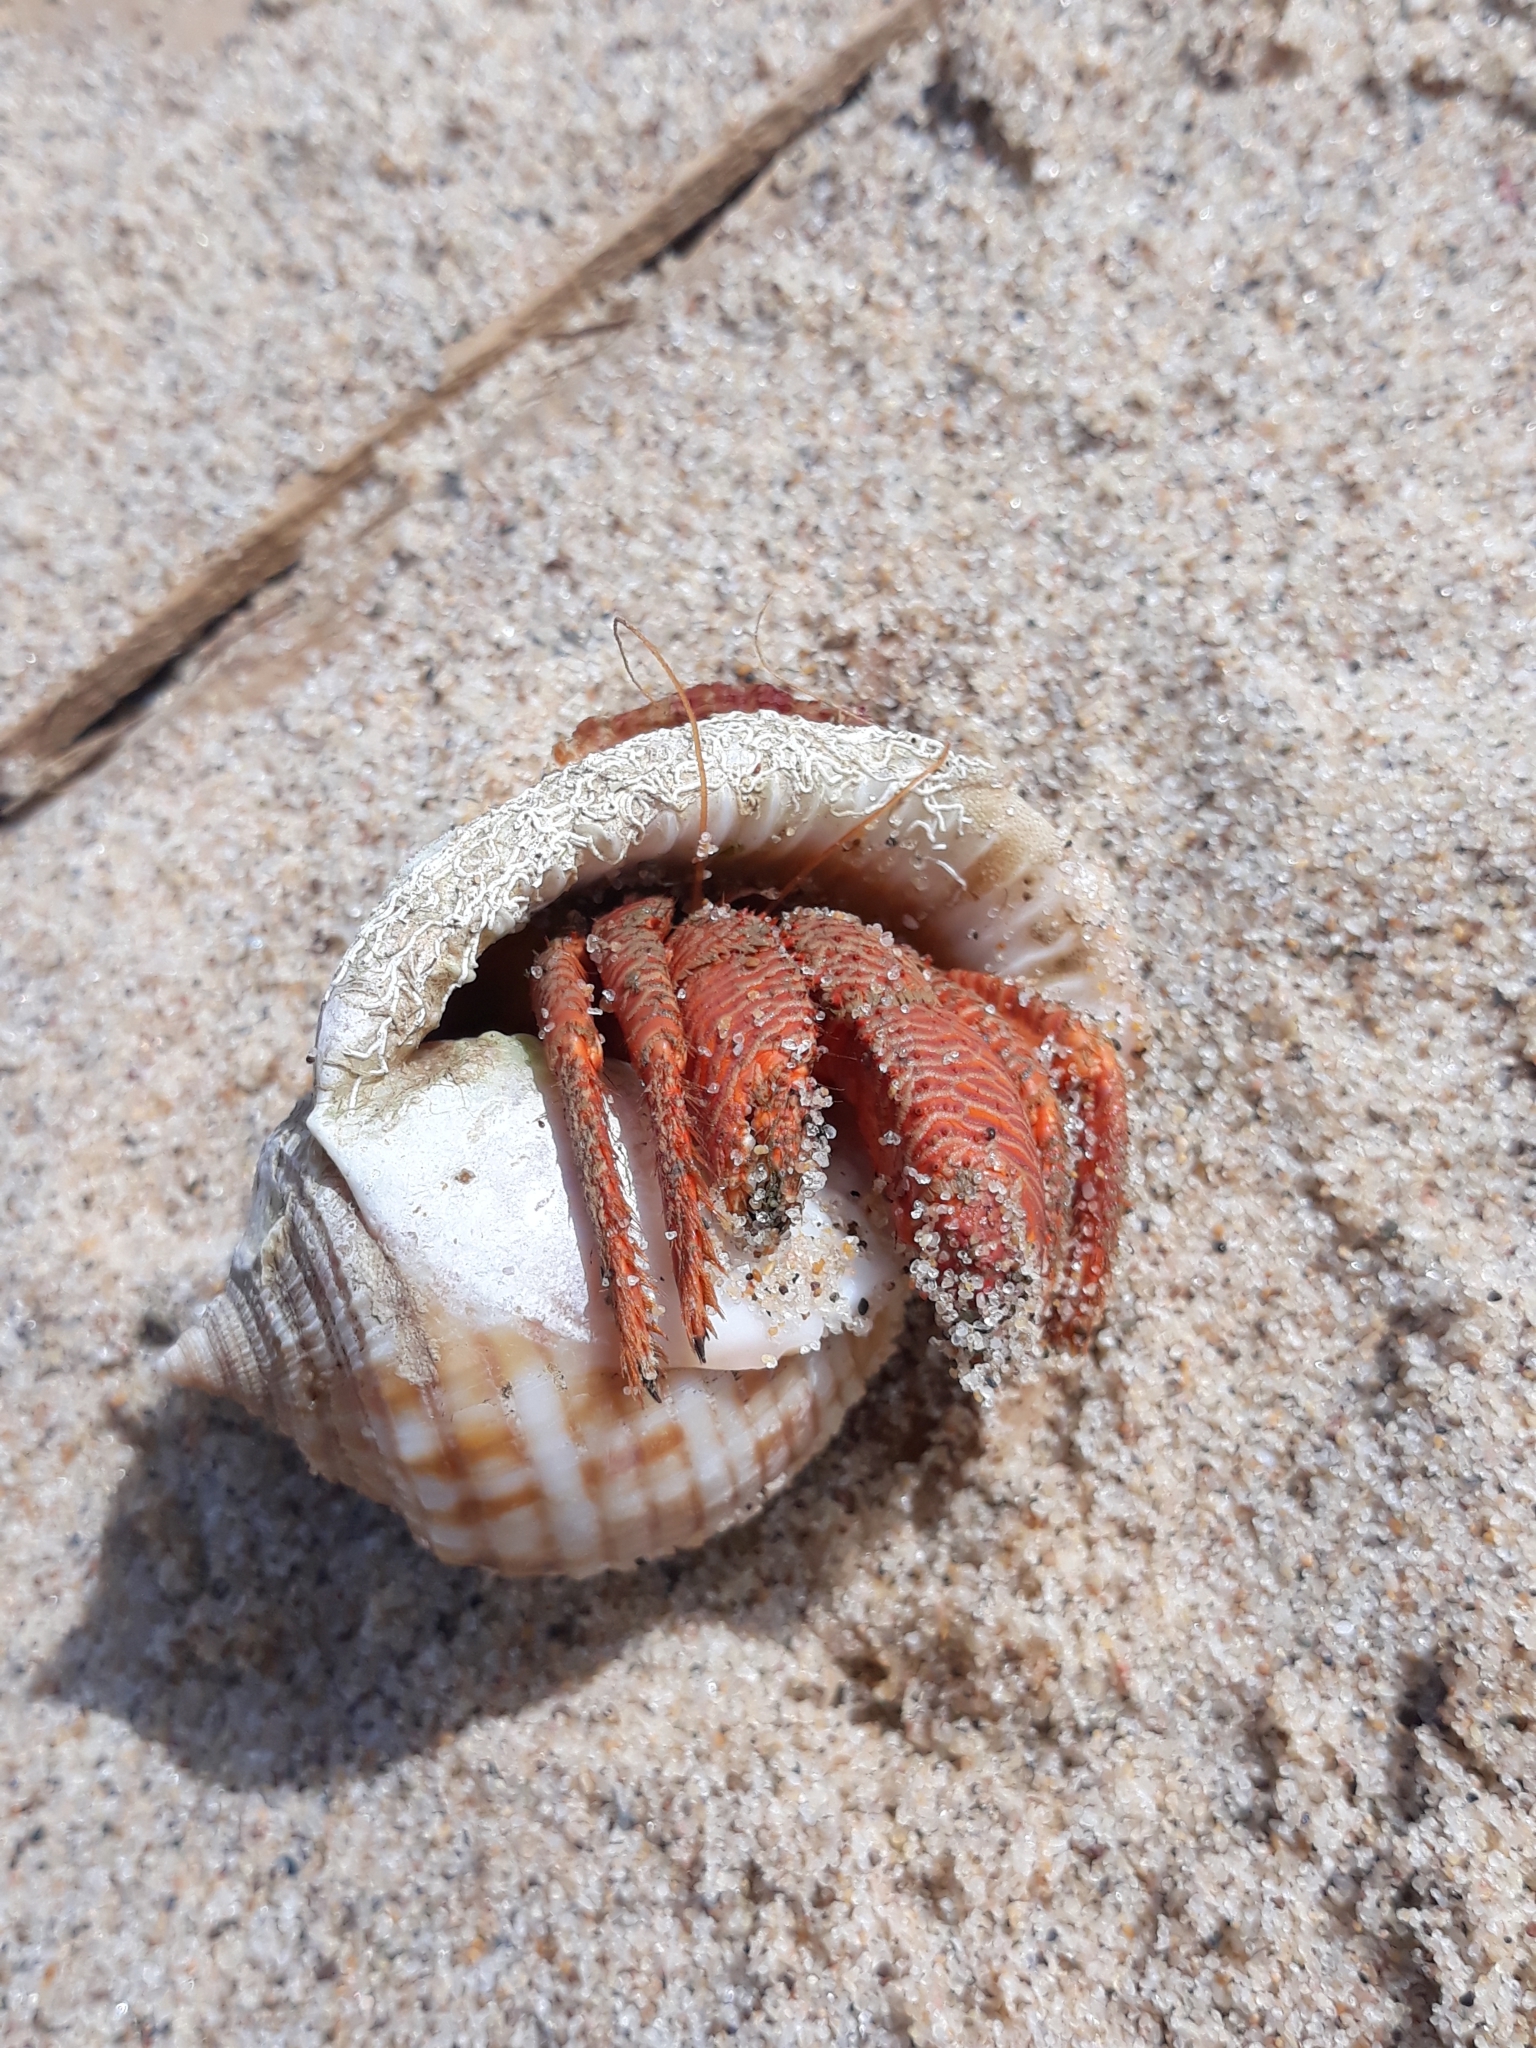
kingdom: Animalia
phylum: Arthropoda
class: Malacostraca
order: Decapoda
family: Diogenidae
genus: Dardanus
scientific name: Dardanus arrosor
